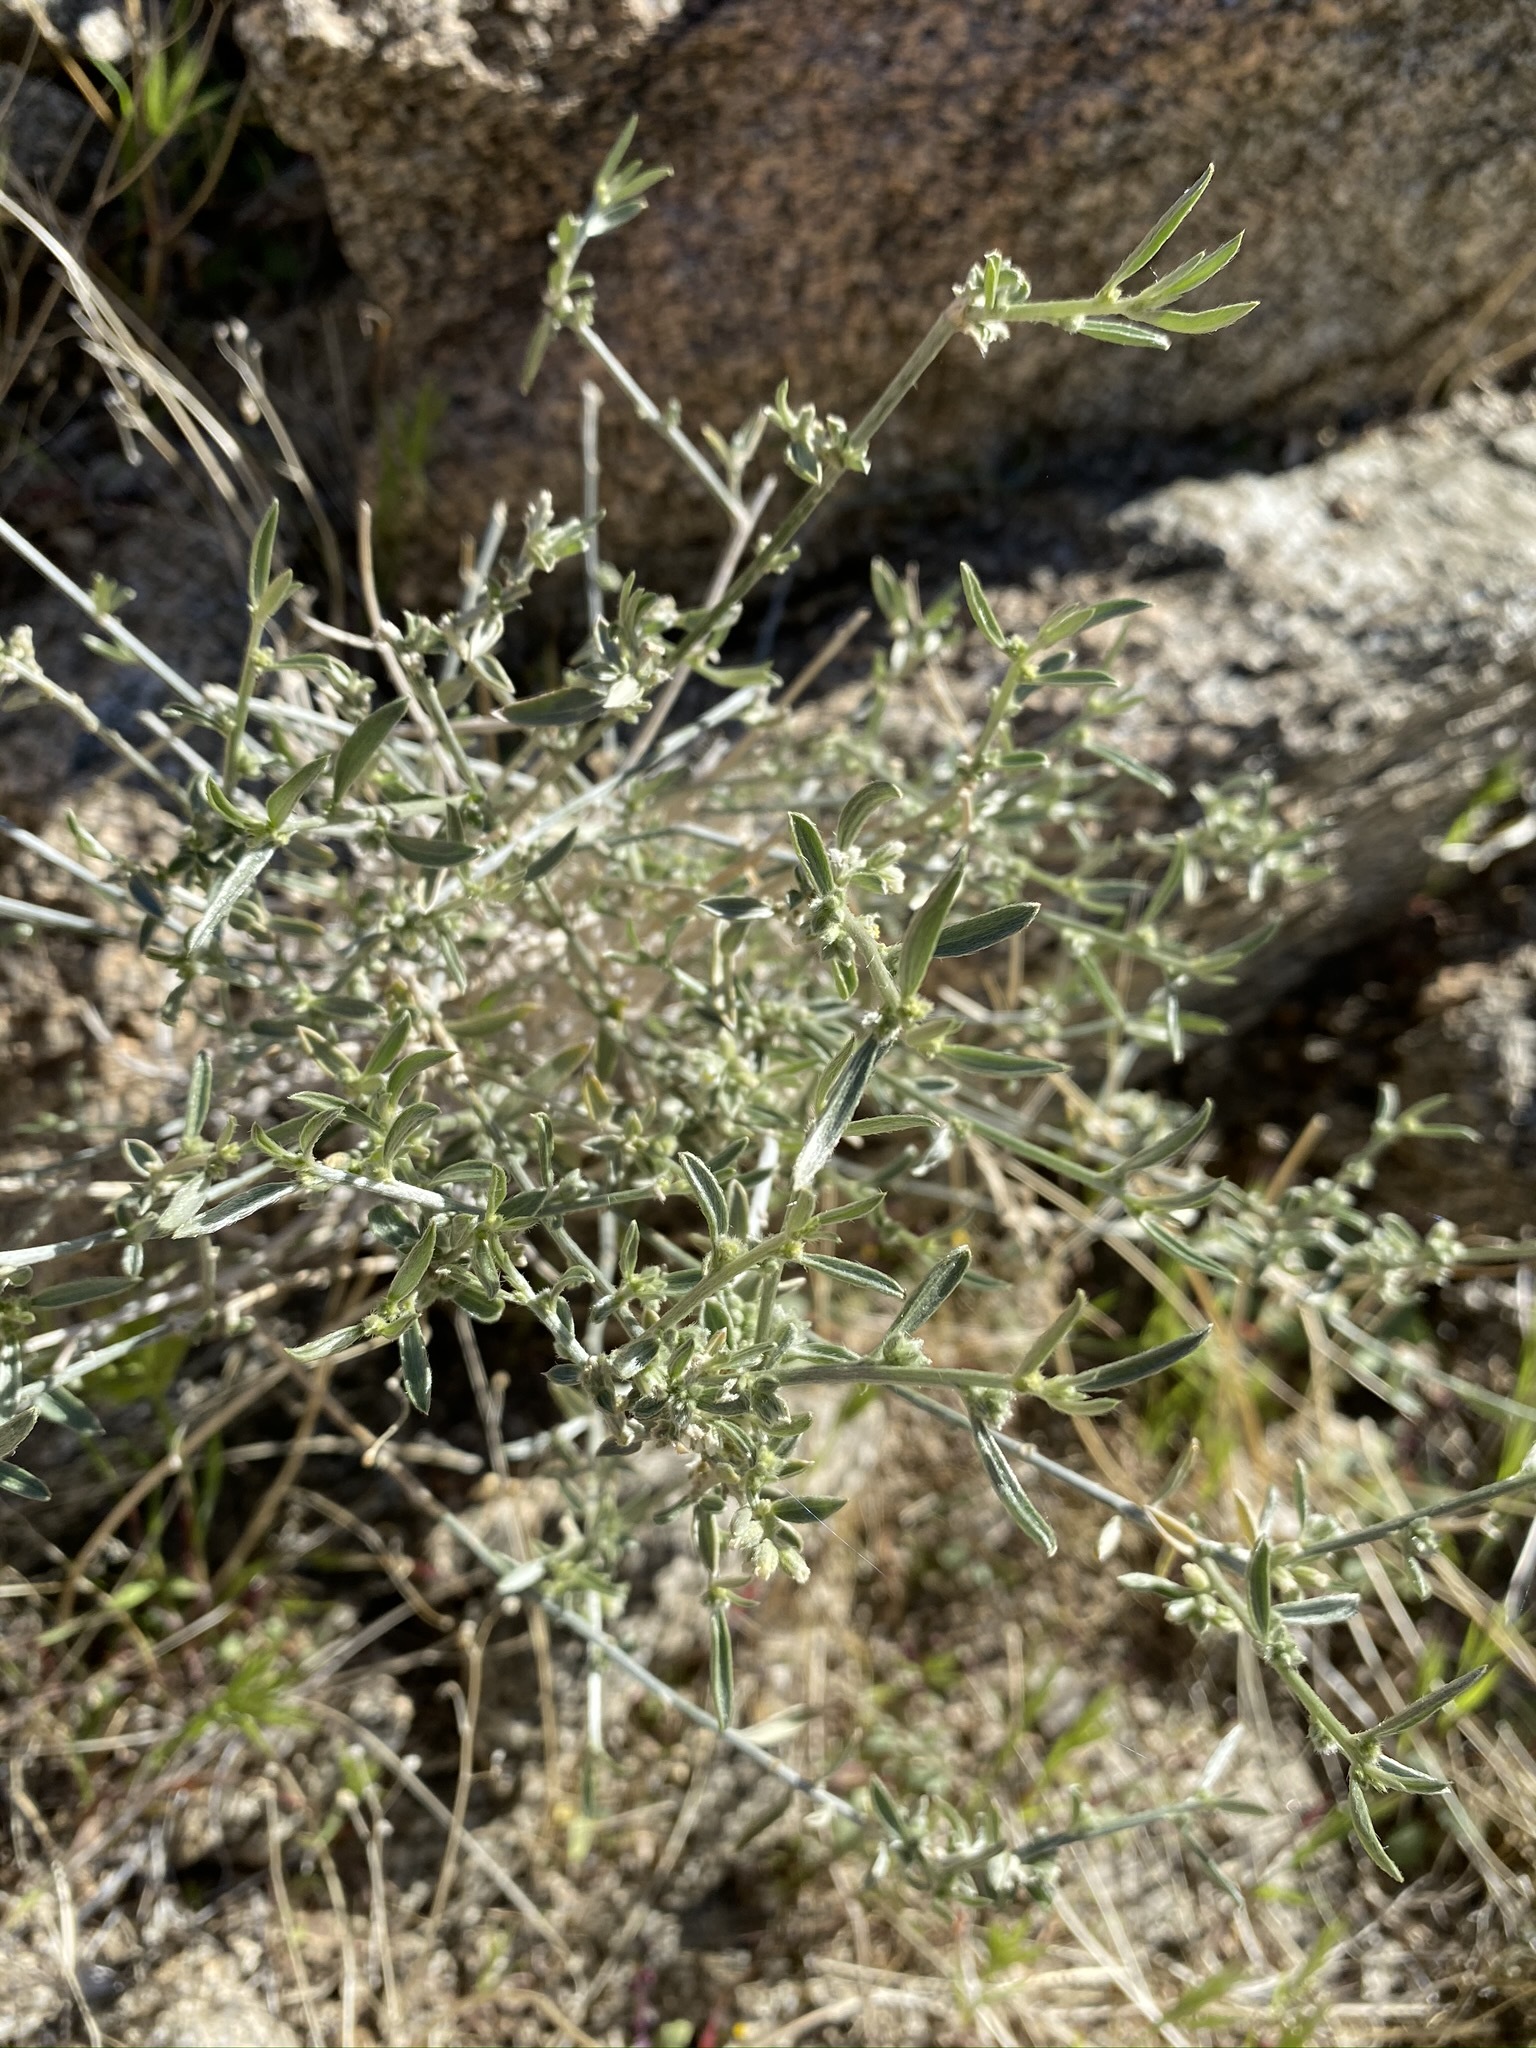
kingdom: Plantae
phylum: Tracheophyta
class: Magnoliopsida
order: Malpighiales
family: Euphorbiaceae
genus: Ditaxis
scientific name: Ditaxis lanceolata
